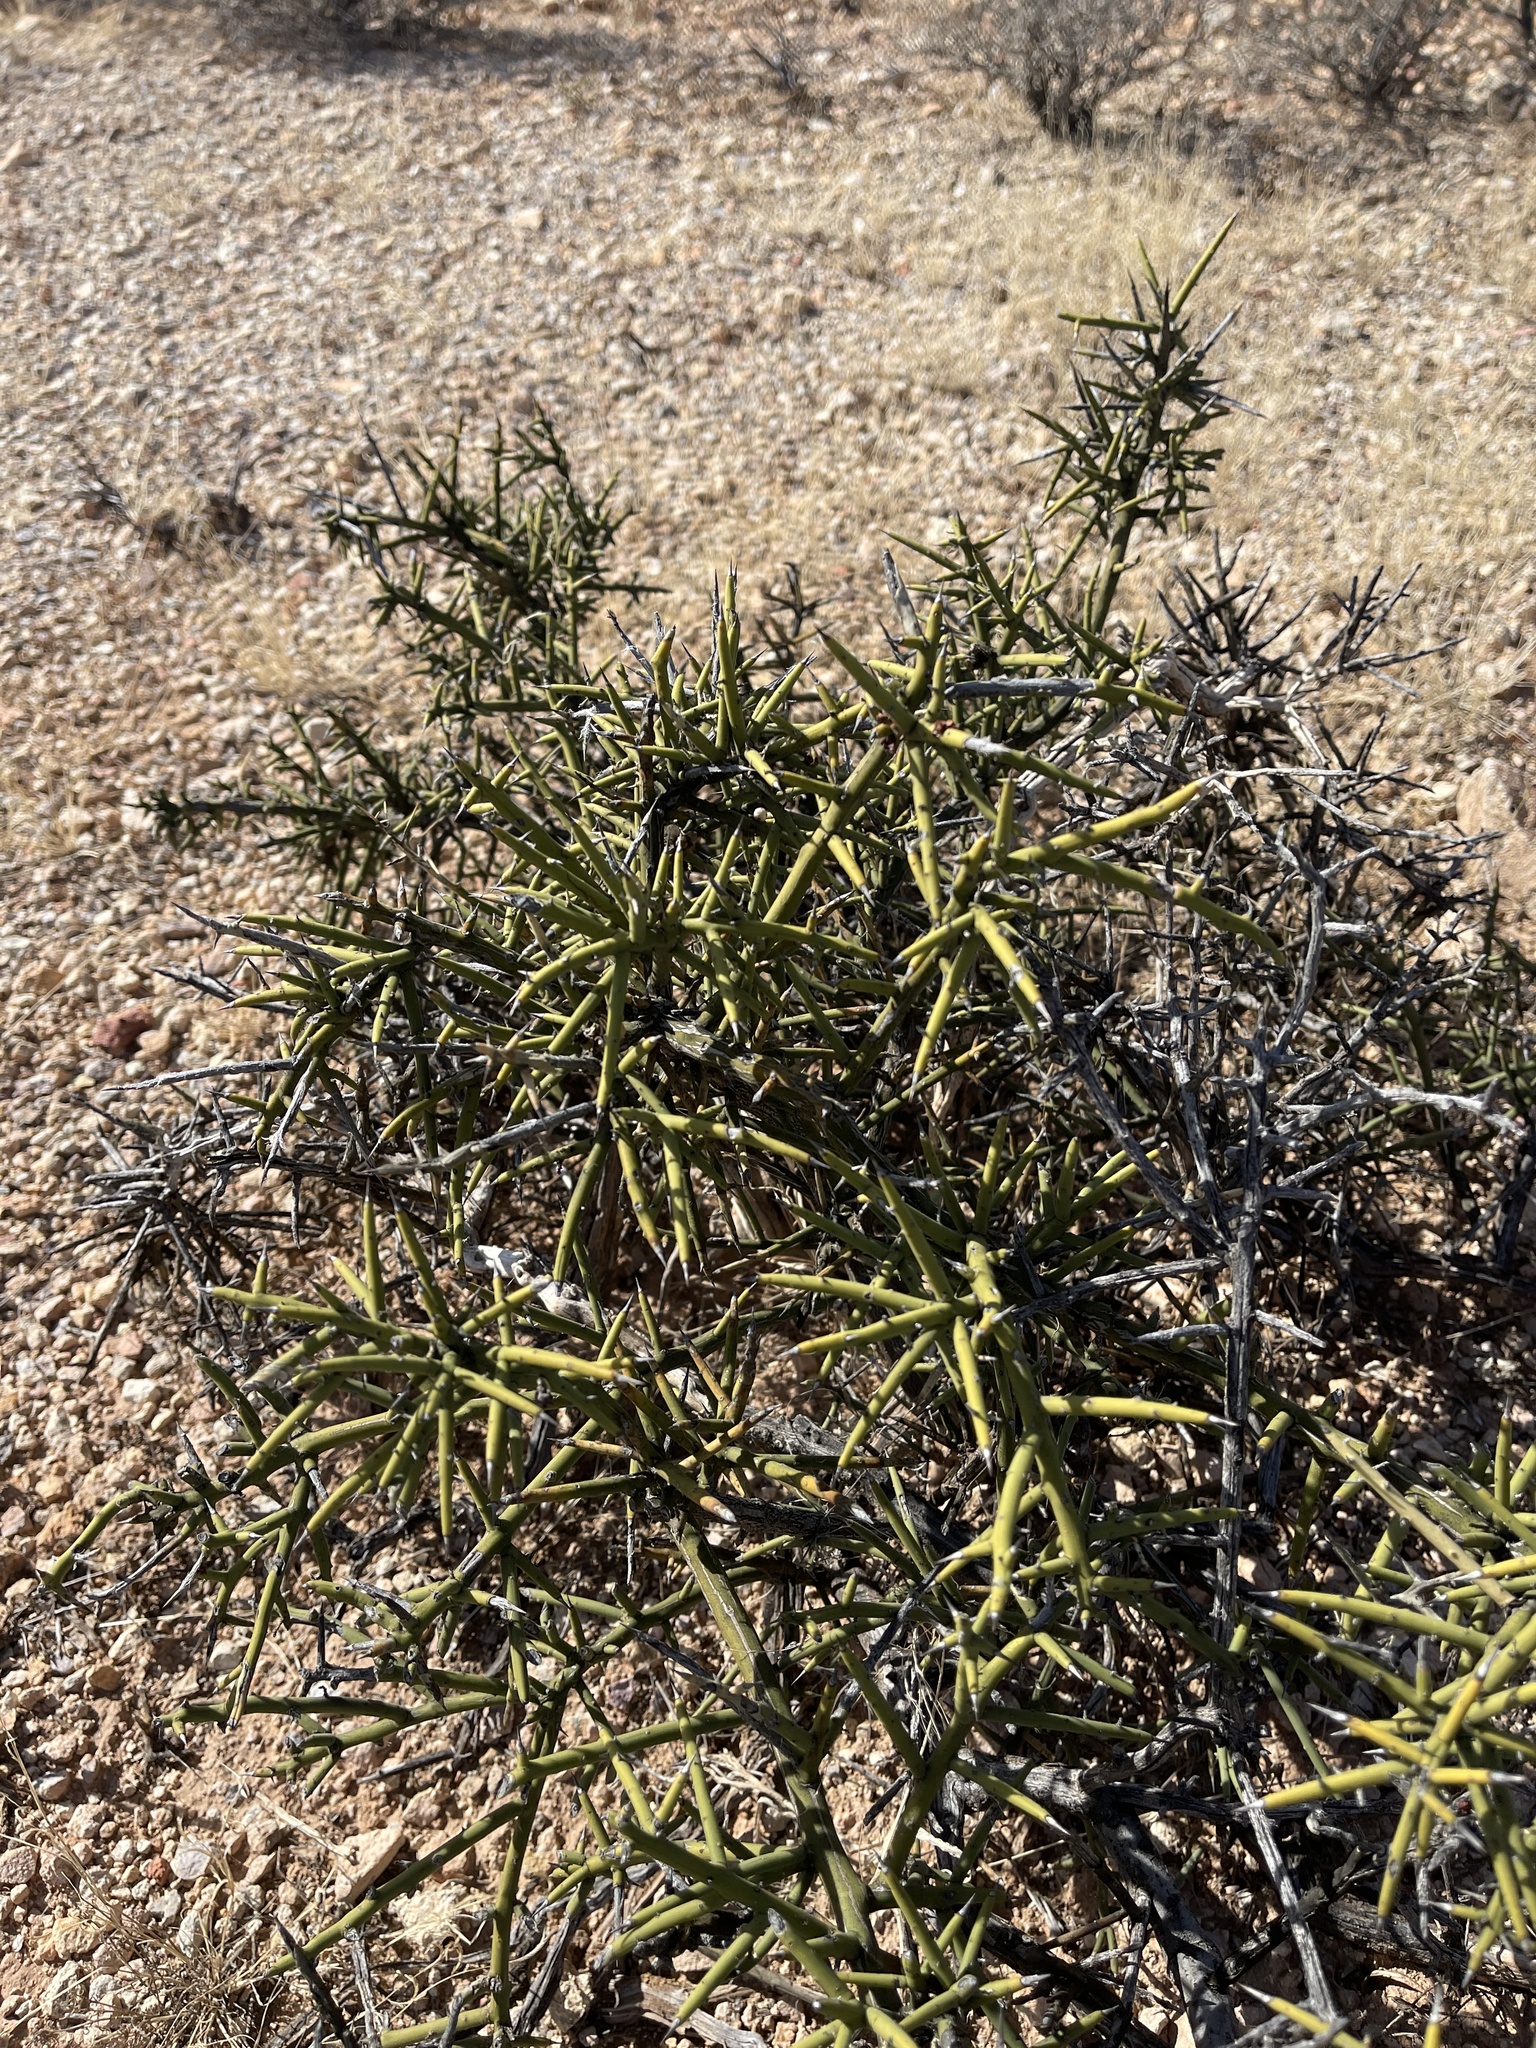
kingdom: Plantae
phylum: Tracheophyta
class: Magnoliopsida
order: Brassicales
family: Koeberliniaceae
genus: Koeberlinia
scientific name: Koeberlinia spinosa
